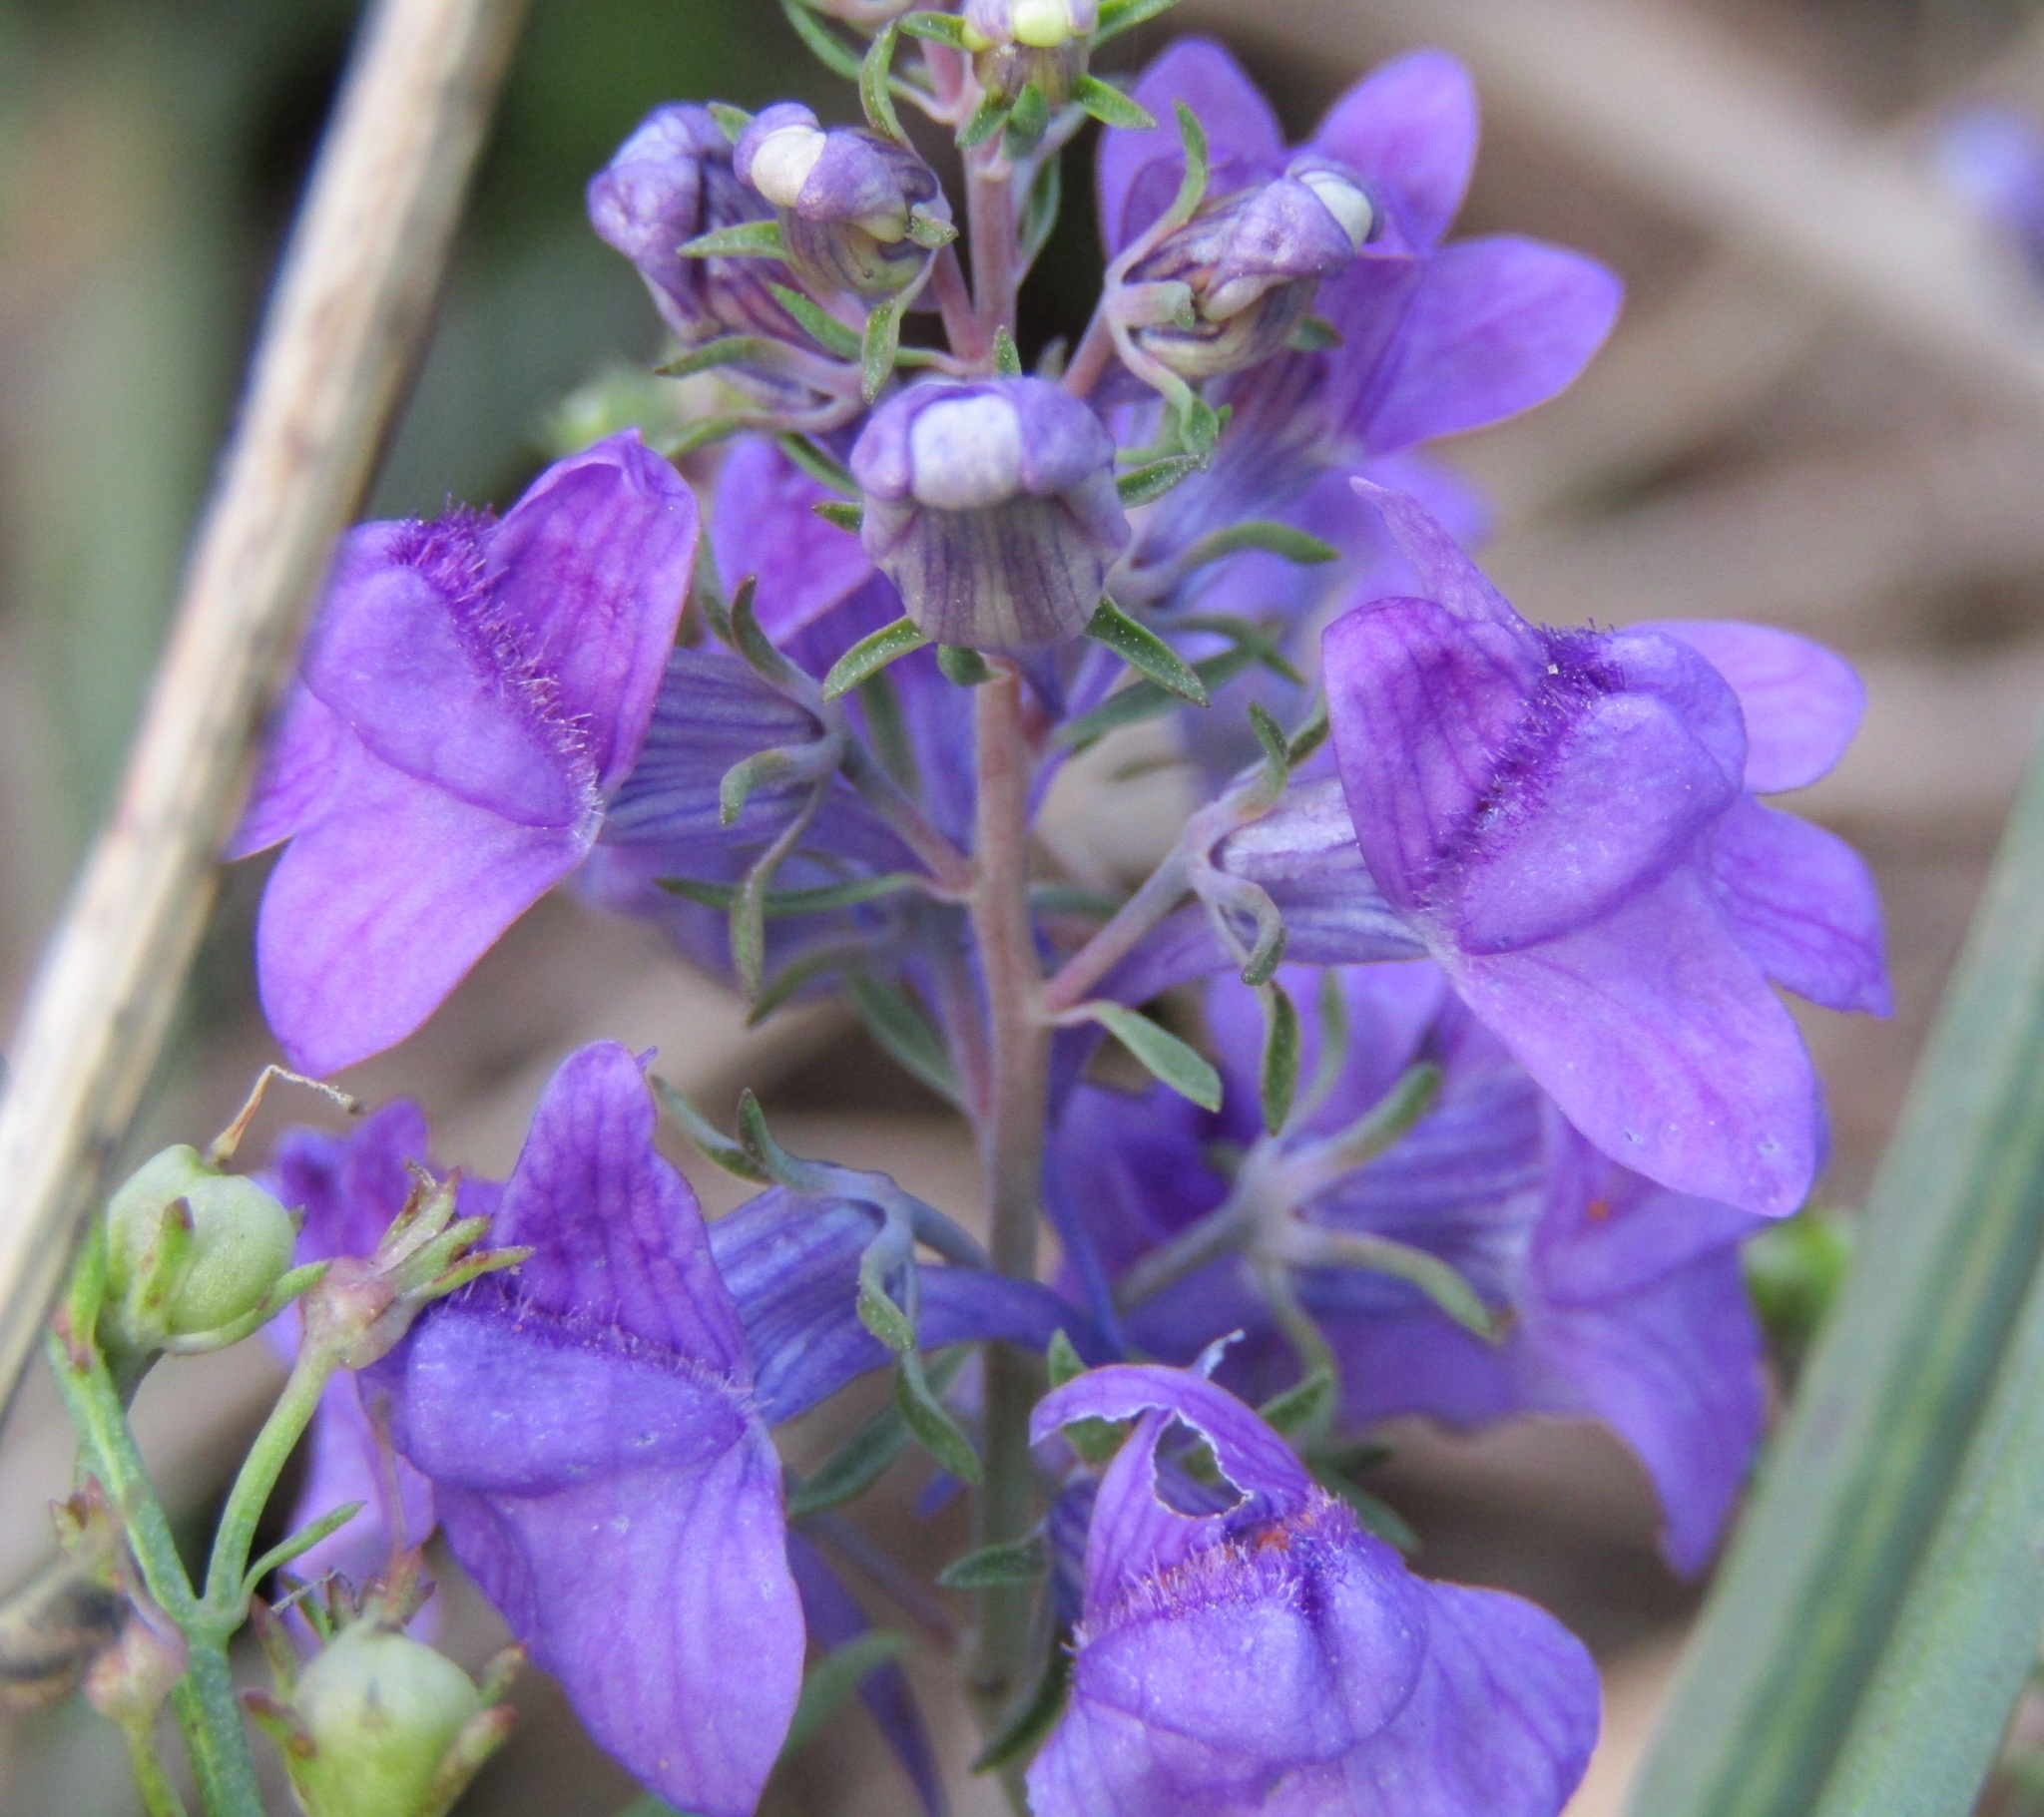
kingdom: Plantae
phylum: Tracheophyta
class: Magnoliopsida
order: Lamiales
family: Plantaginaceae
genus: Linaria
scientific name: Linaria purpurea
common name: Purple toadflax
